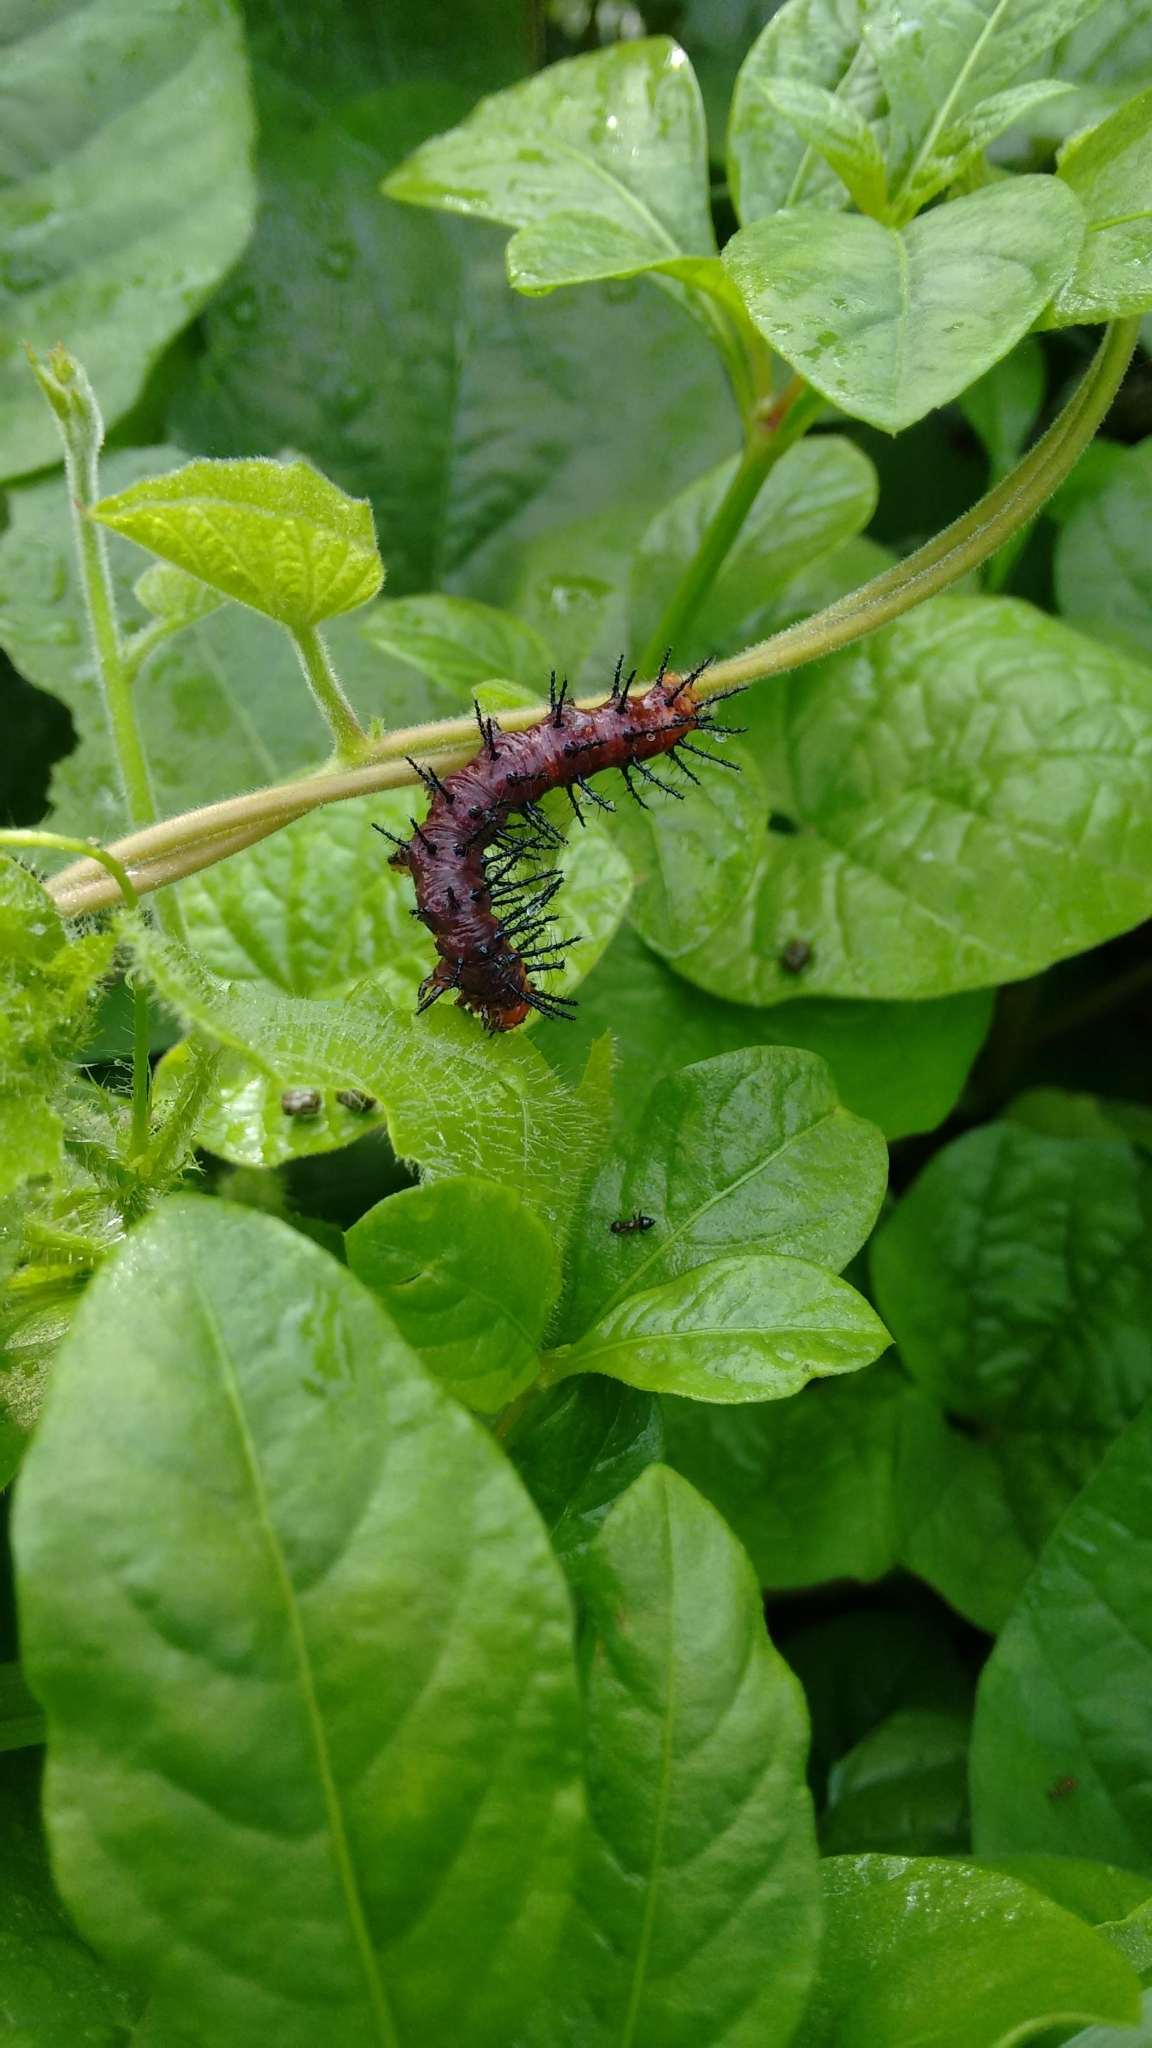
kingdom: Animalia
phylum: Arthropoda
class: Insecta
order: Lepidoptera
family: Nymphalidae
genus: Acraea
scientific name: Acraea terpsicore
